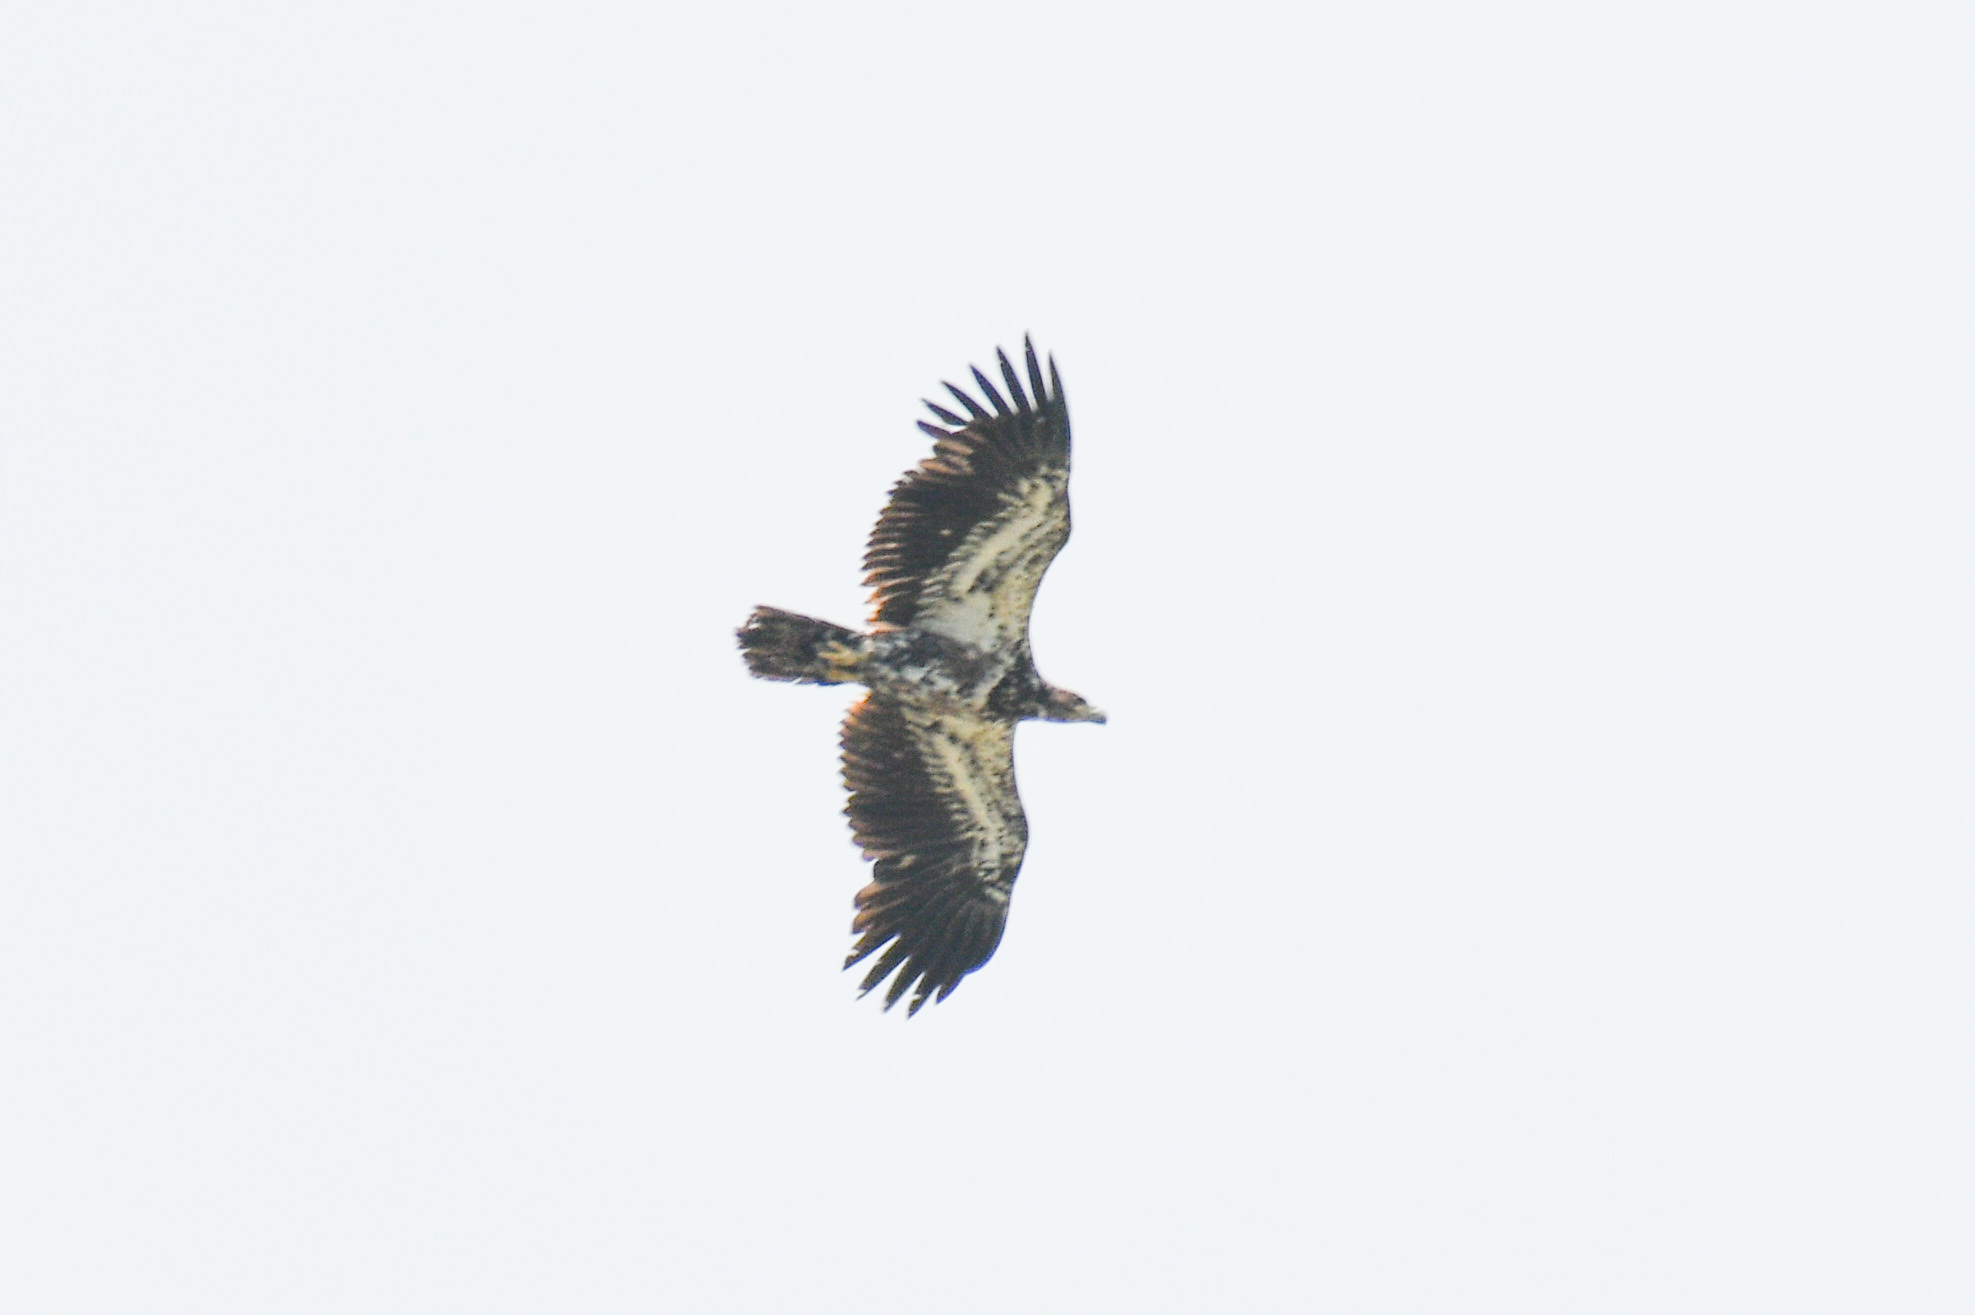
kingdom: Animalia
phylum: Chordata
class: Aves
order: Accipitriformes
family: Accipitridae
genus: Haliaeetus
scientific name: Haliaeetus leucocephalus
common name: Bald eagle
